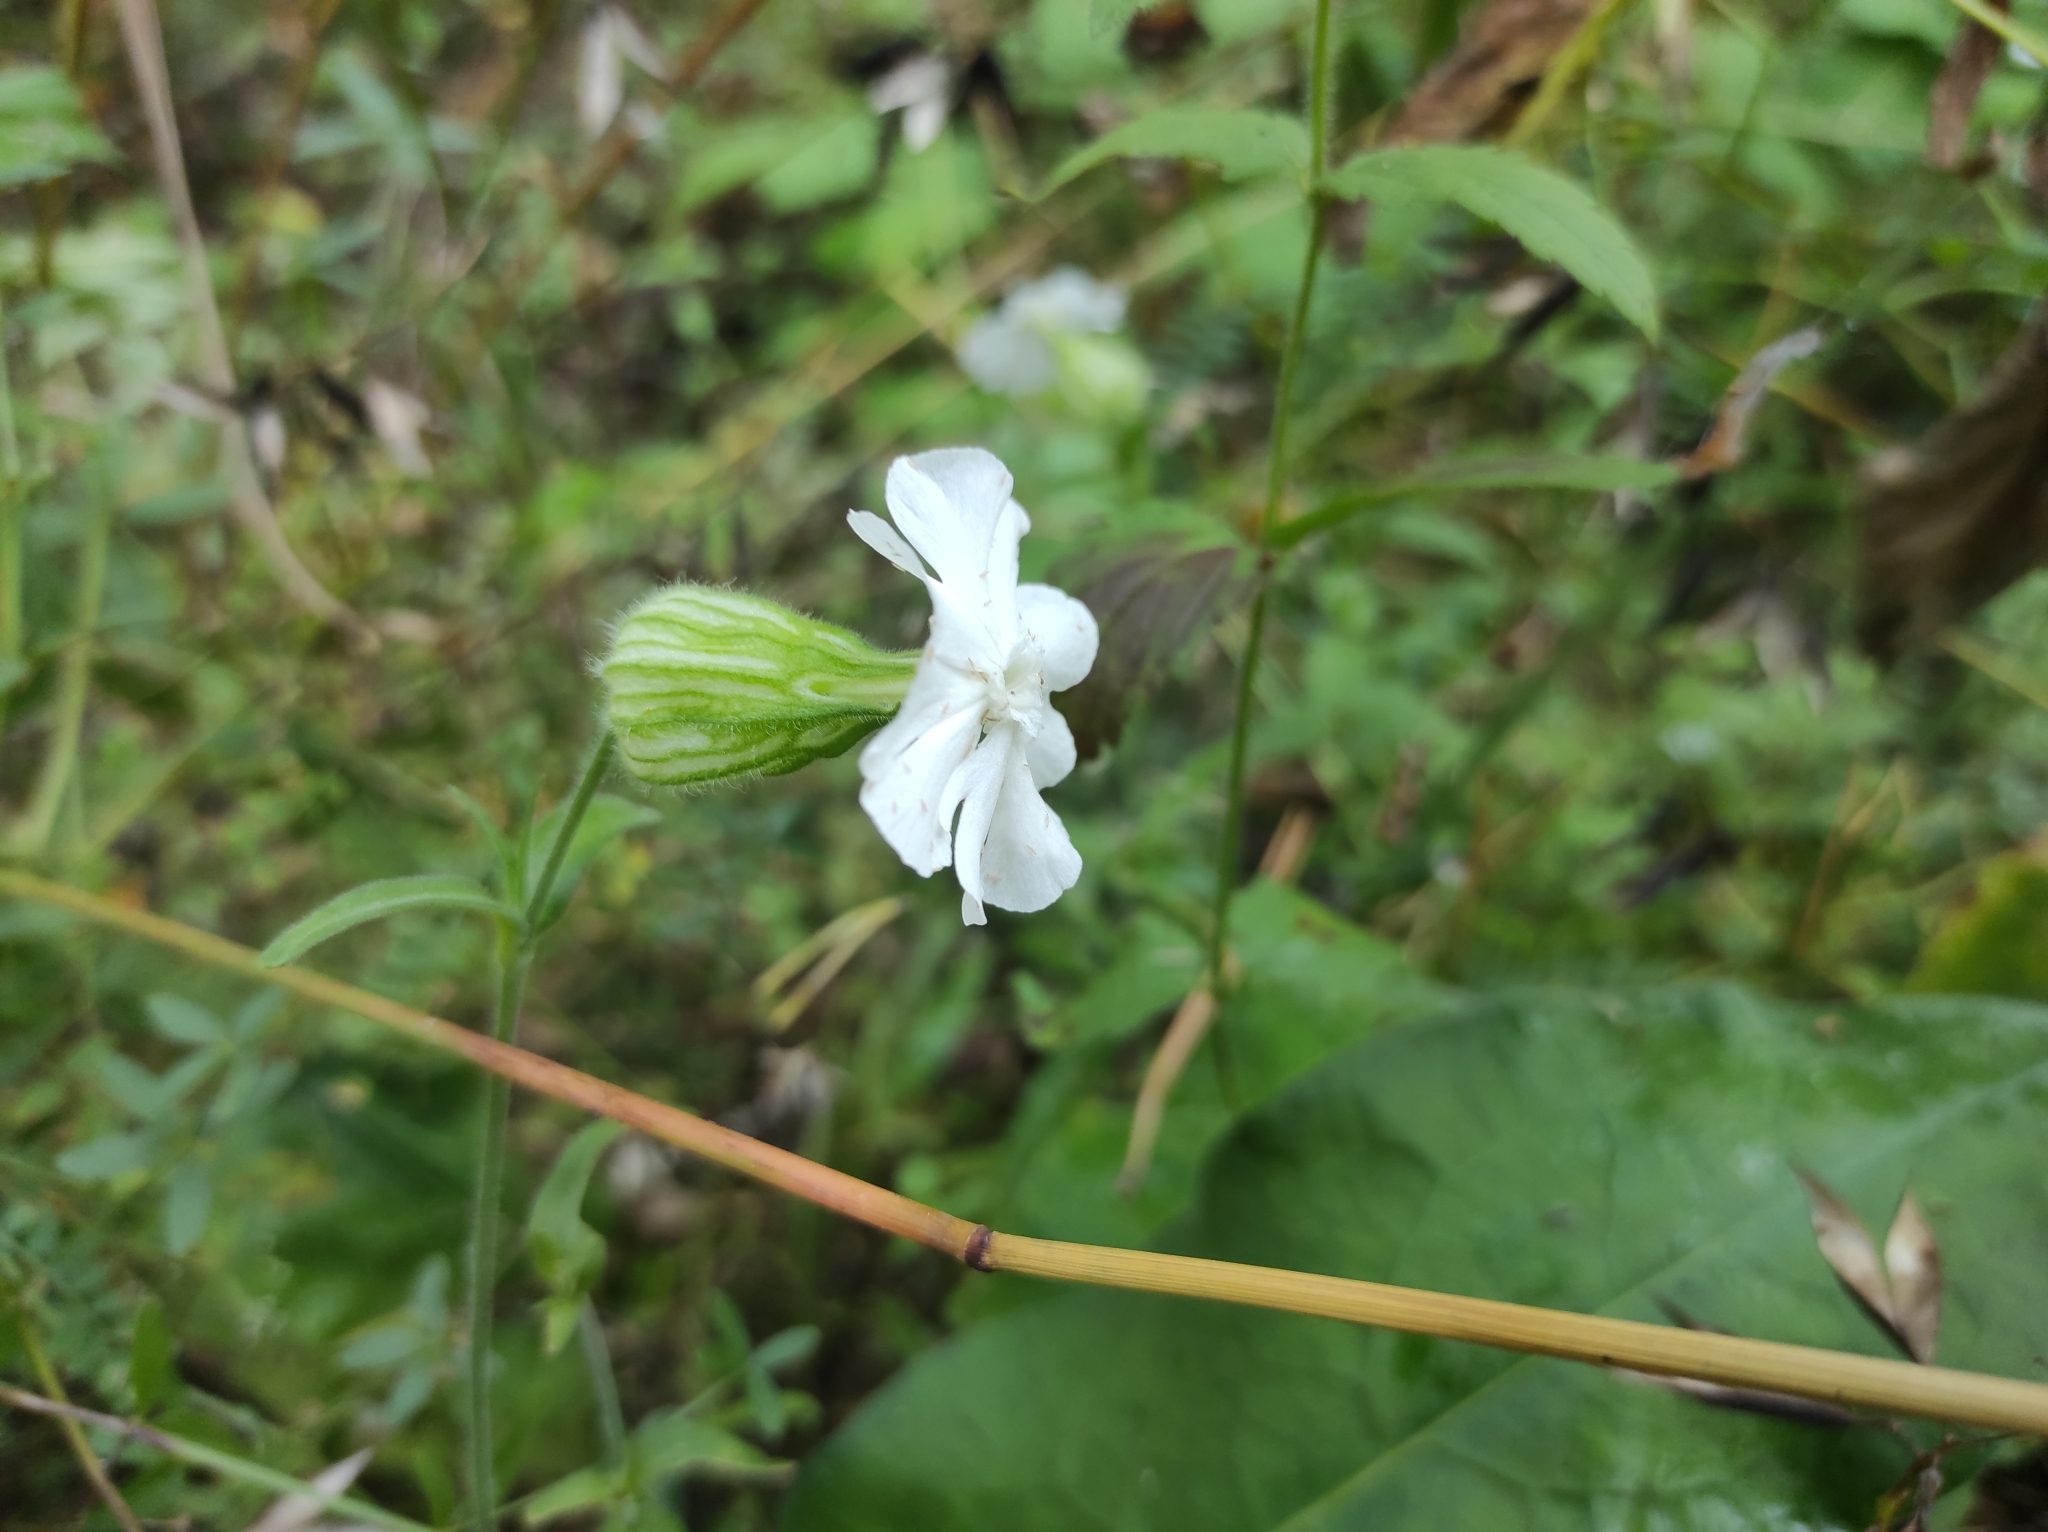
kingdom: Plantae
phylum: Tracheophyta
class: Magnoliopsida
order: Caryophyllales
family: Caryophyllaceae
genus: Silene
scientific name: Silene latifolia
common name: White campion
